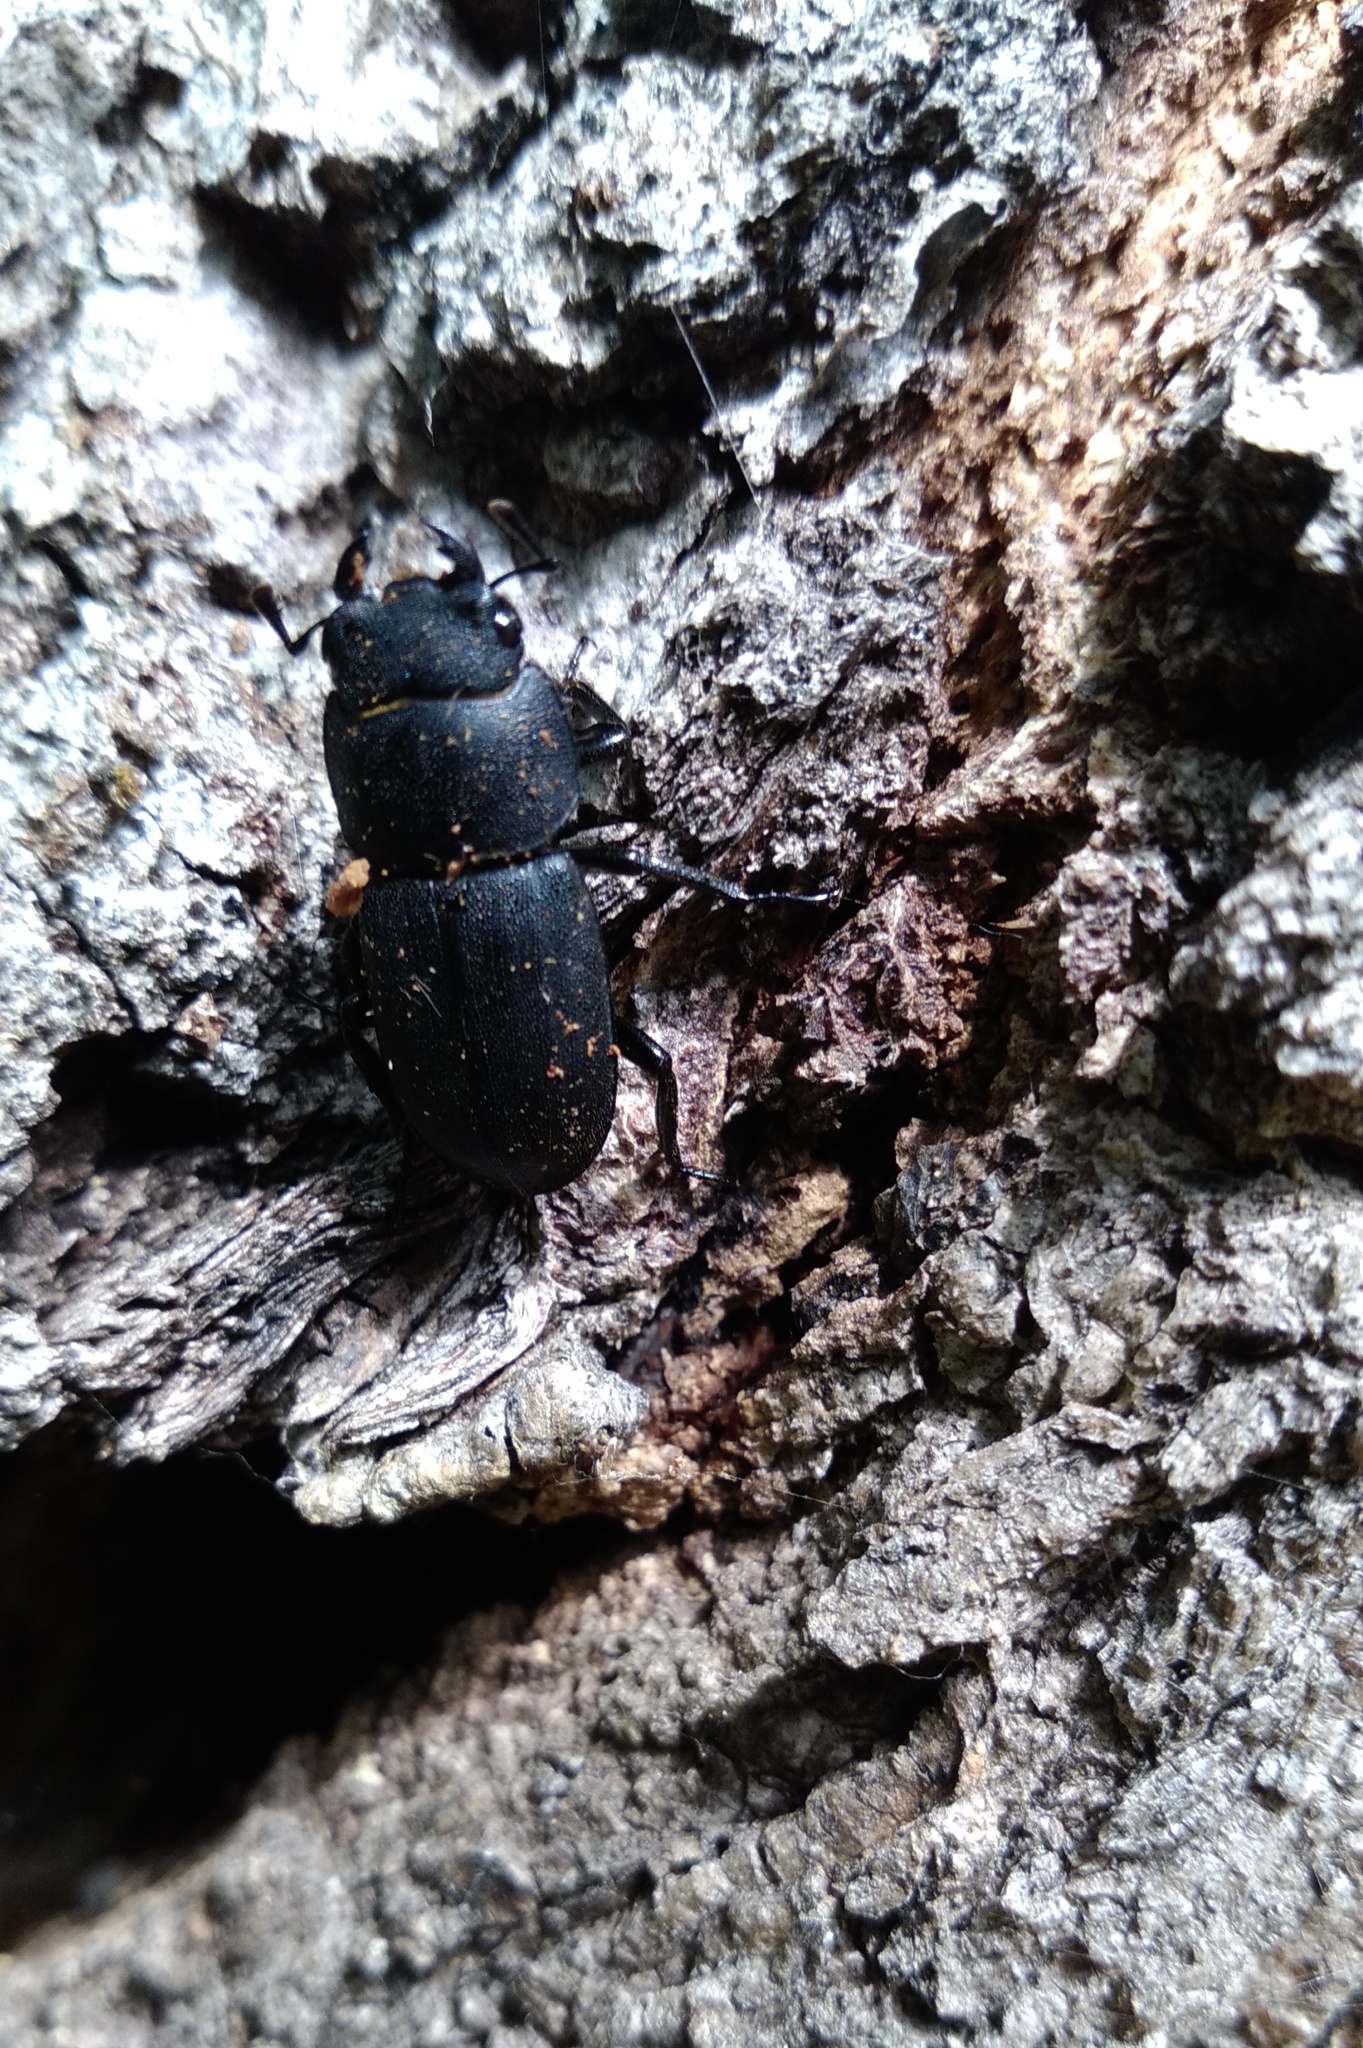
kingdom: Animalia
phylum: Arthropoda
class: Insecta
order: Coleoptera
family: Lucanidae
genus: Dorcus
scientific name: Dorcus parallelipipedus
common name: Lesser stag beetle
